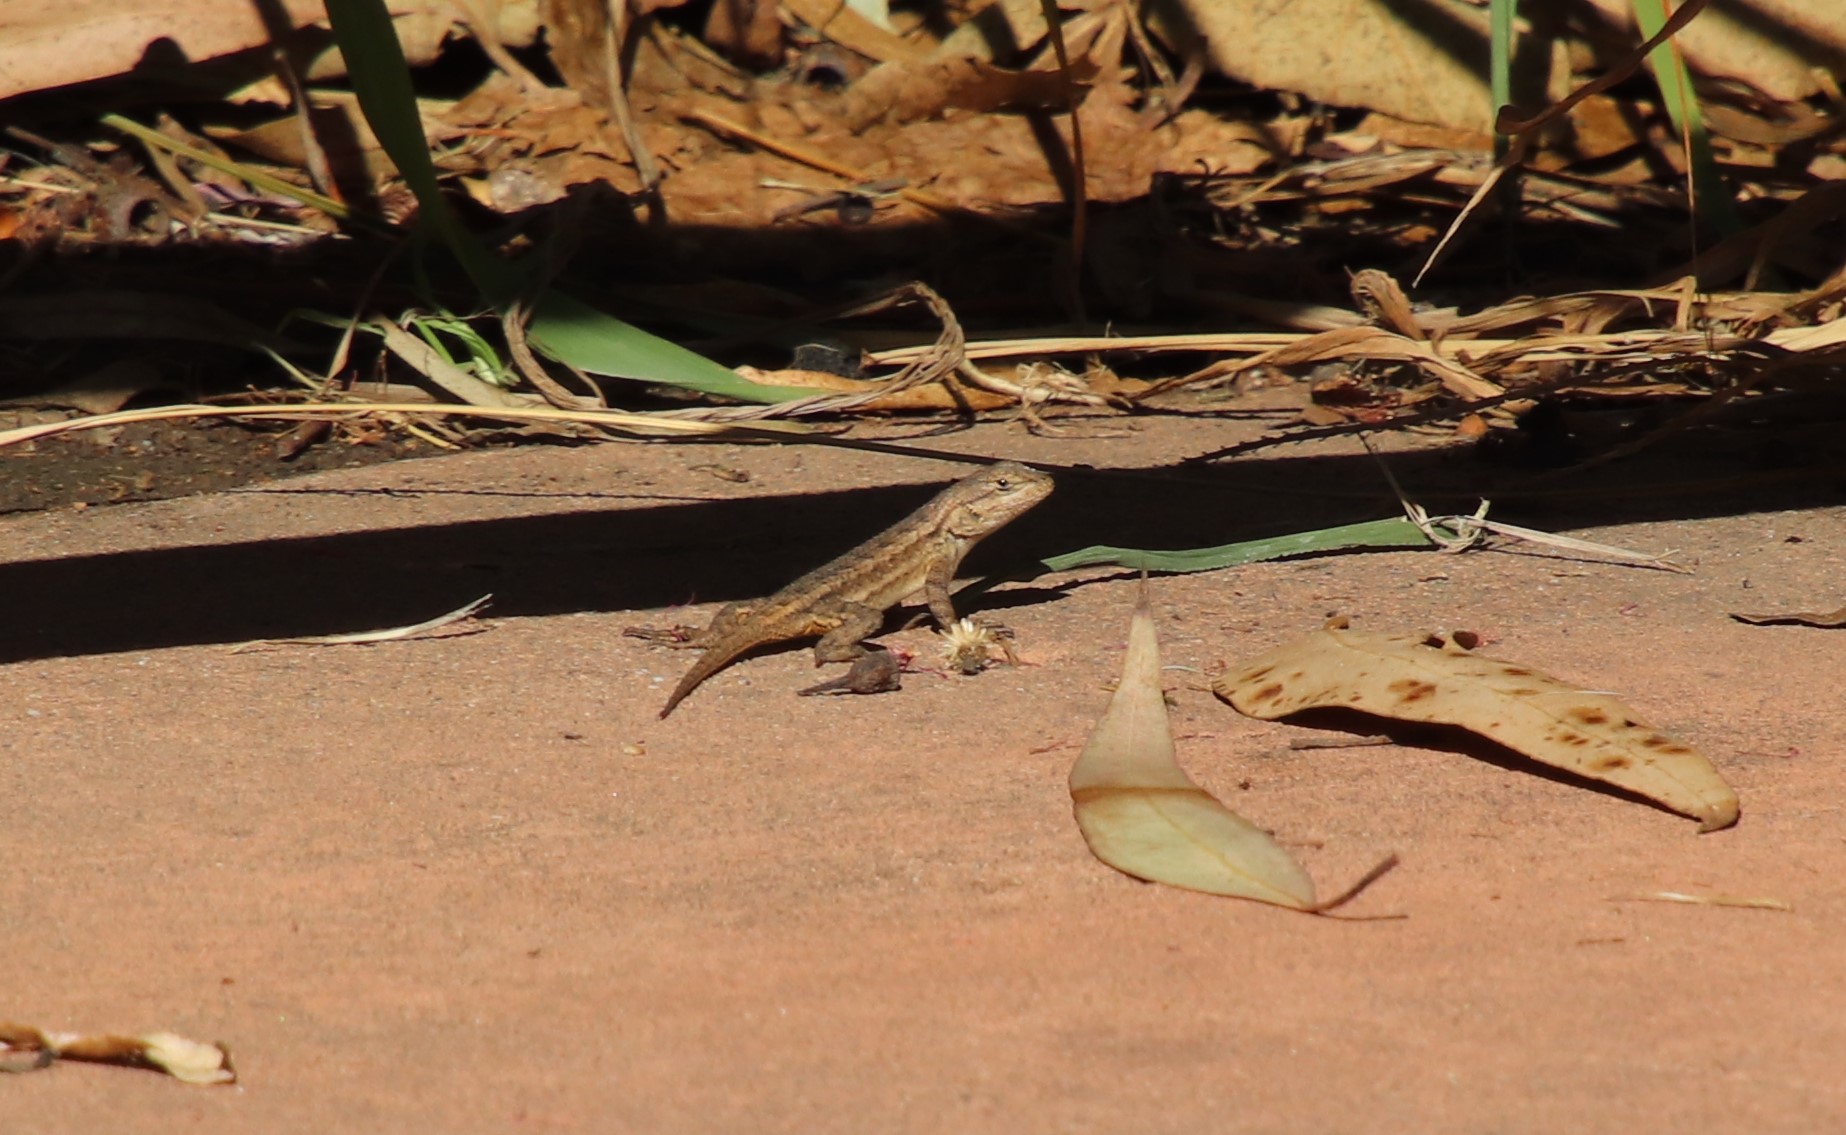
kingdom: Animalia
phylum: Chordata
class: Squamata
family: Phrynosomatidae
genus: Sceloporus
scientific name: Sceloporus occidentalis
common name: Western fence lizard
